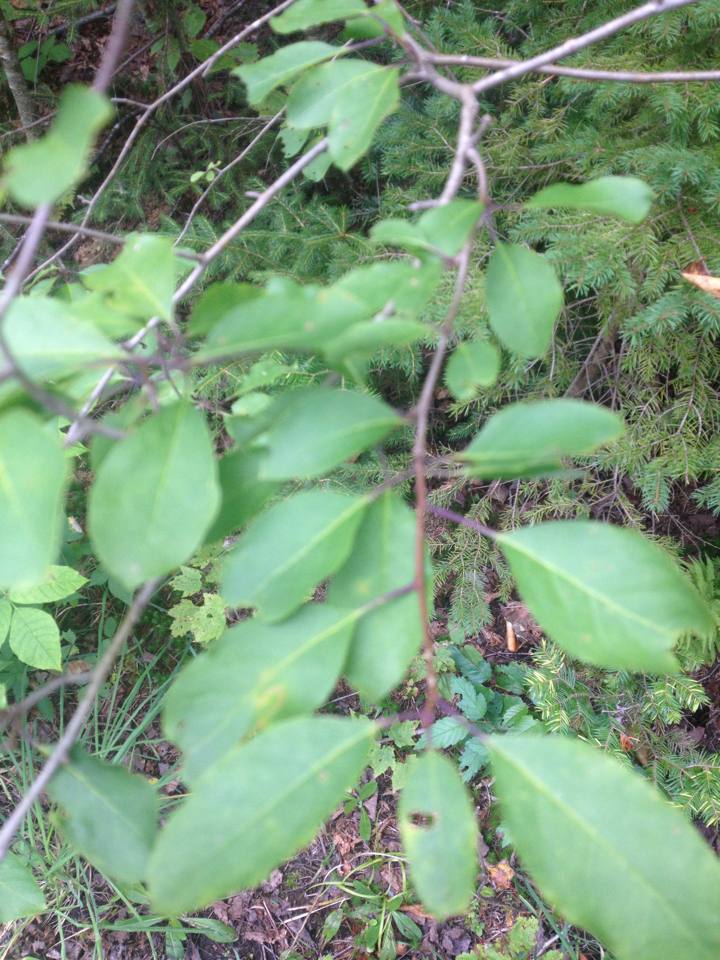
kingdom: Plantae
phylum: Tracheophyta
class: Magnoliopsida
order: Aquifoliales
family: Aquifoliaceae
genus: Ilex
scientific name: Ilex mucronata
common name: Catberry
